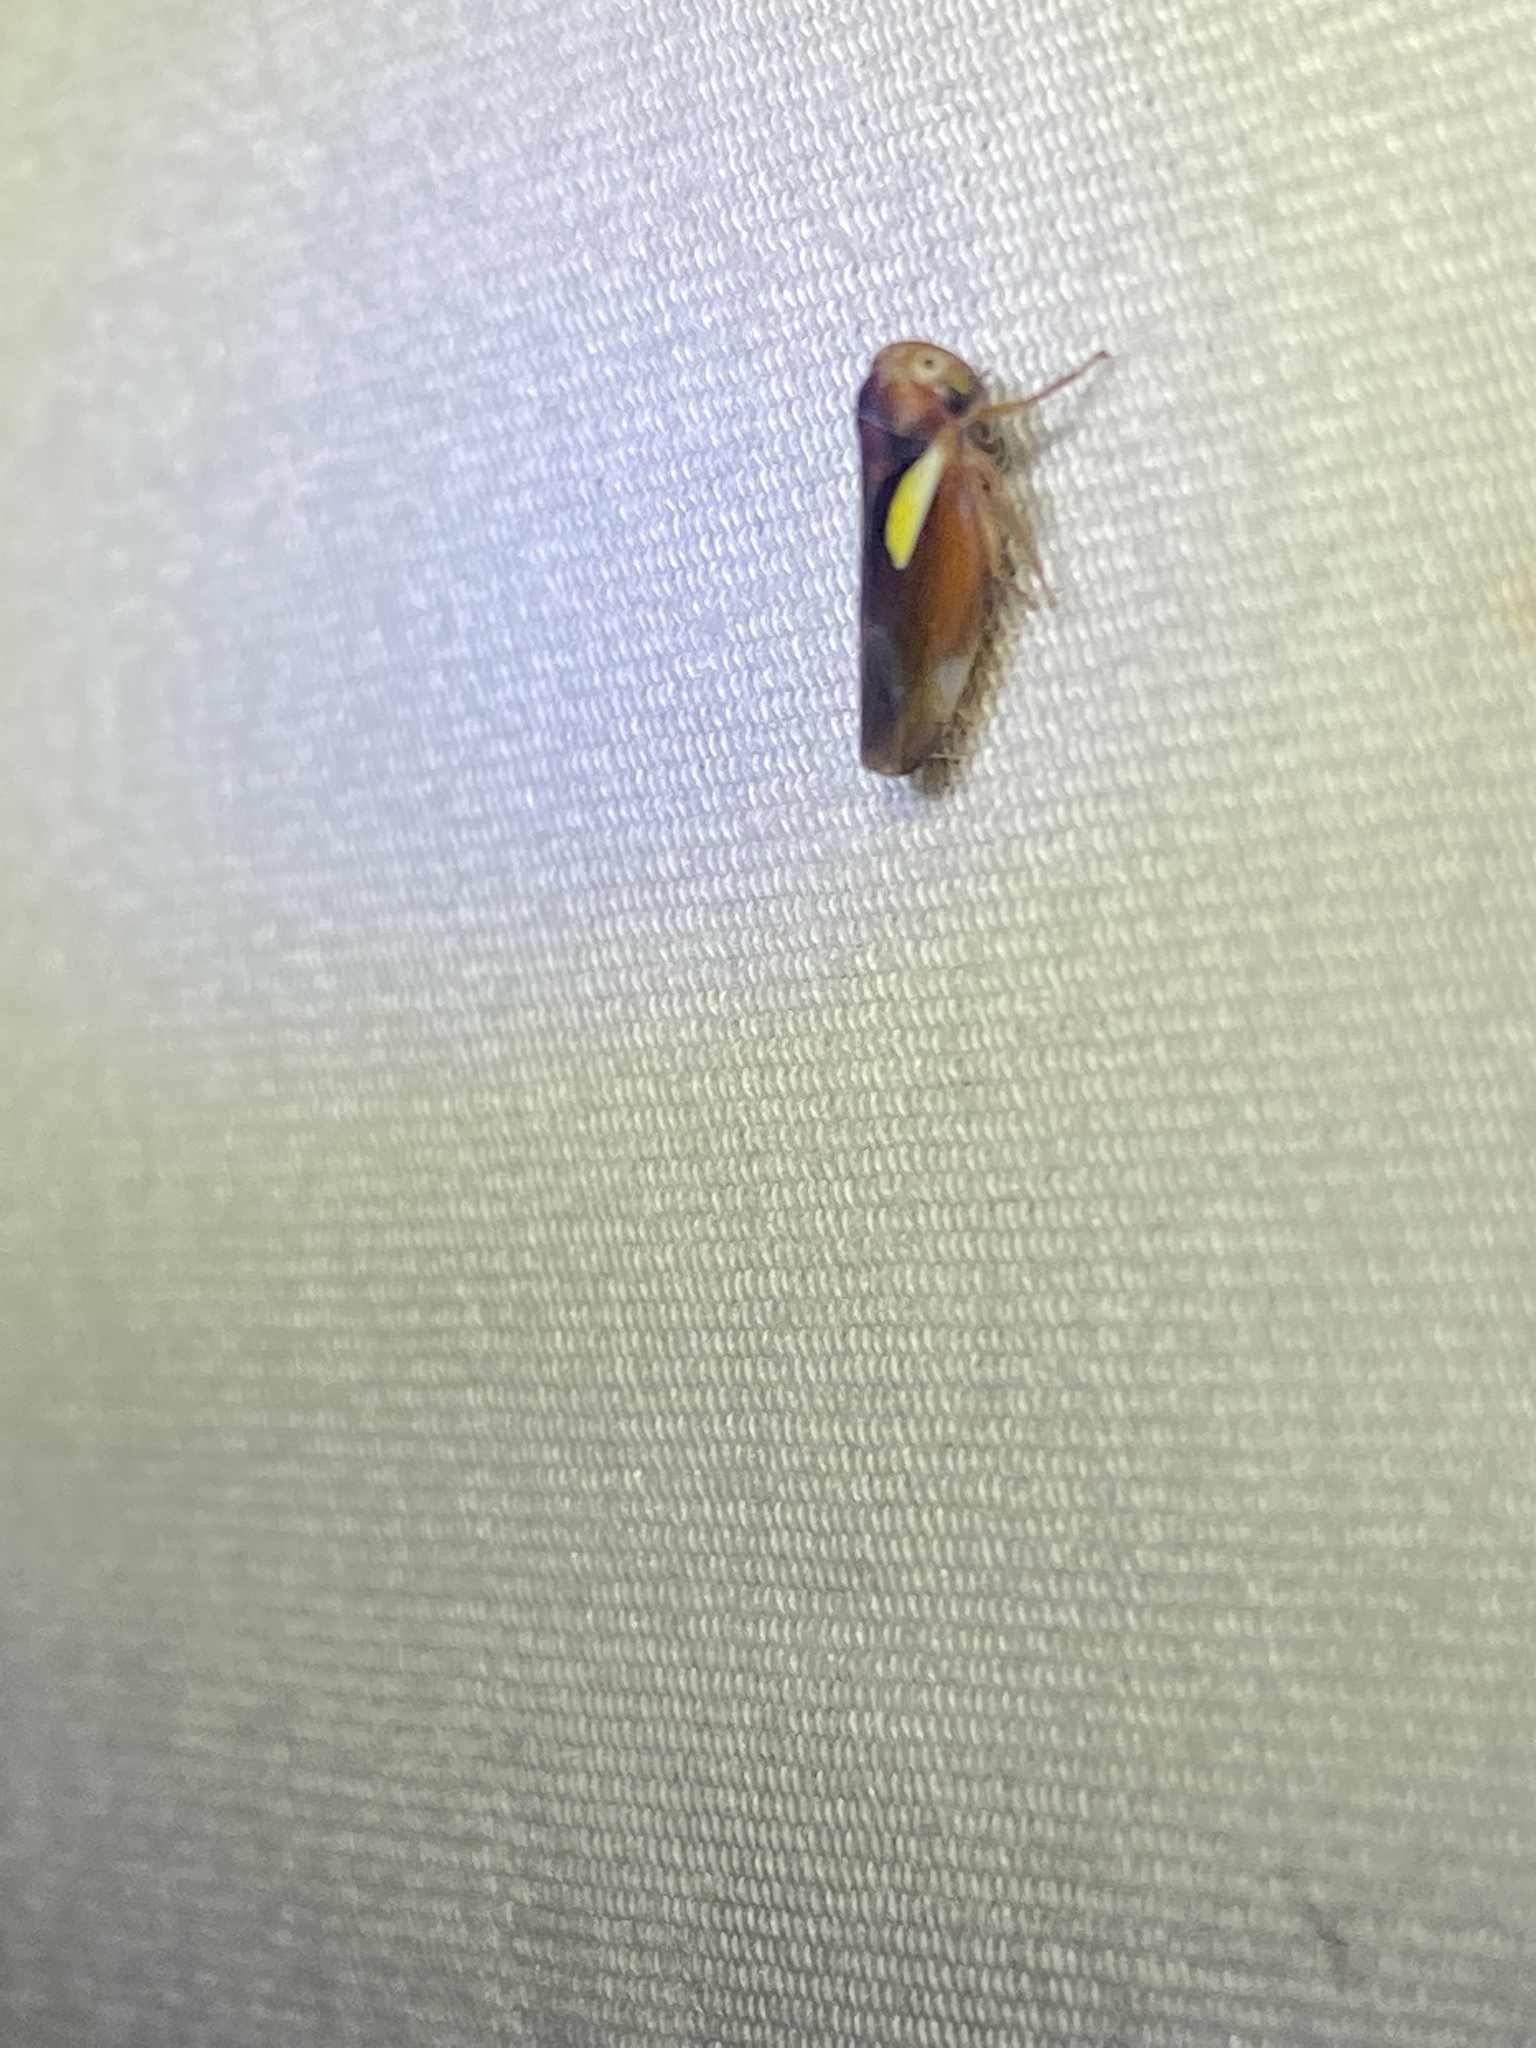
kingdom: Animalia
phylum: Arthropoda
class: Insecta
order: Hemiptera
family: Cicadellidae
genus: Balcanocerus
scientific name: Balcanocerus provancheri
